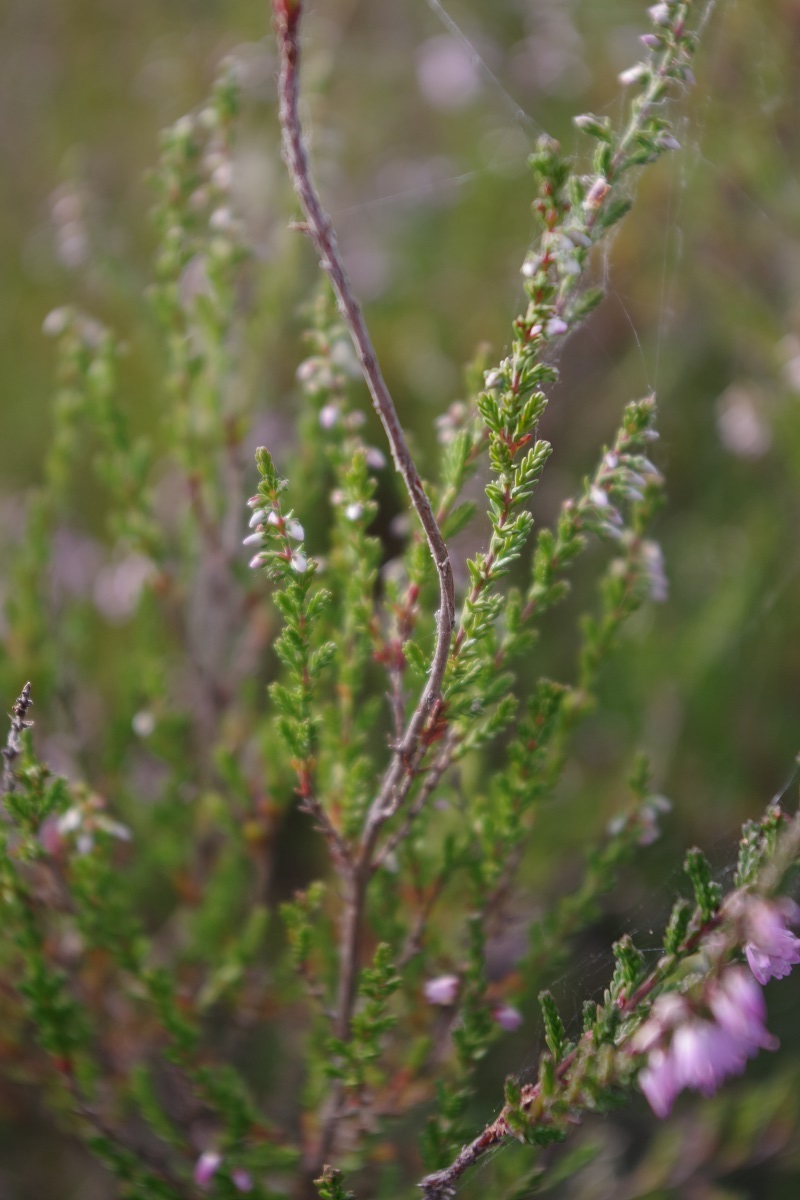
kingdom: Plantae
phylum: Tracheophyta
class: Magnoliopsida
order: Ericales
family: Ericaceae
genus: Calluna
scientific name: Calluna vulgaris
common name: Heather
